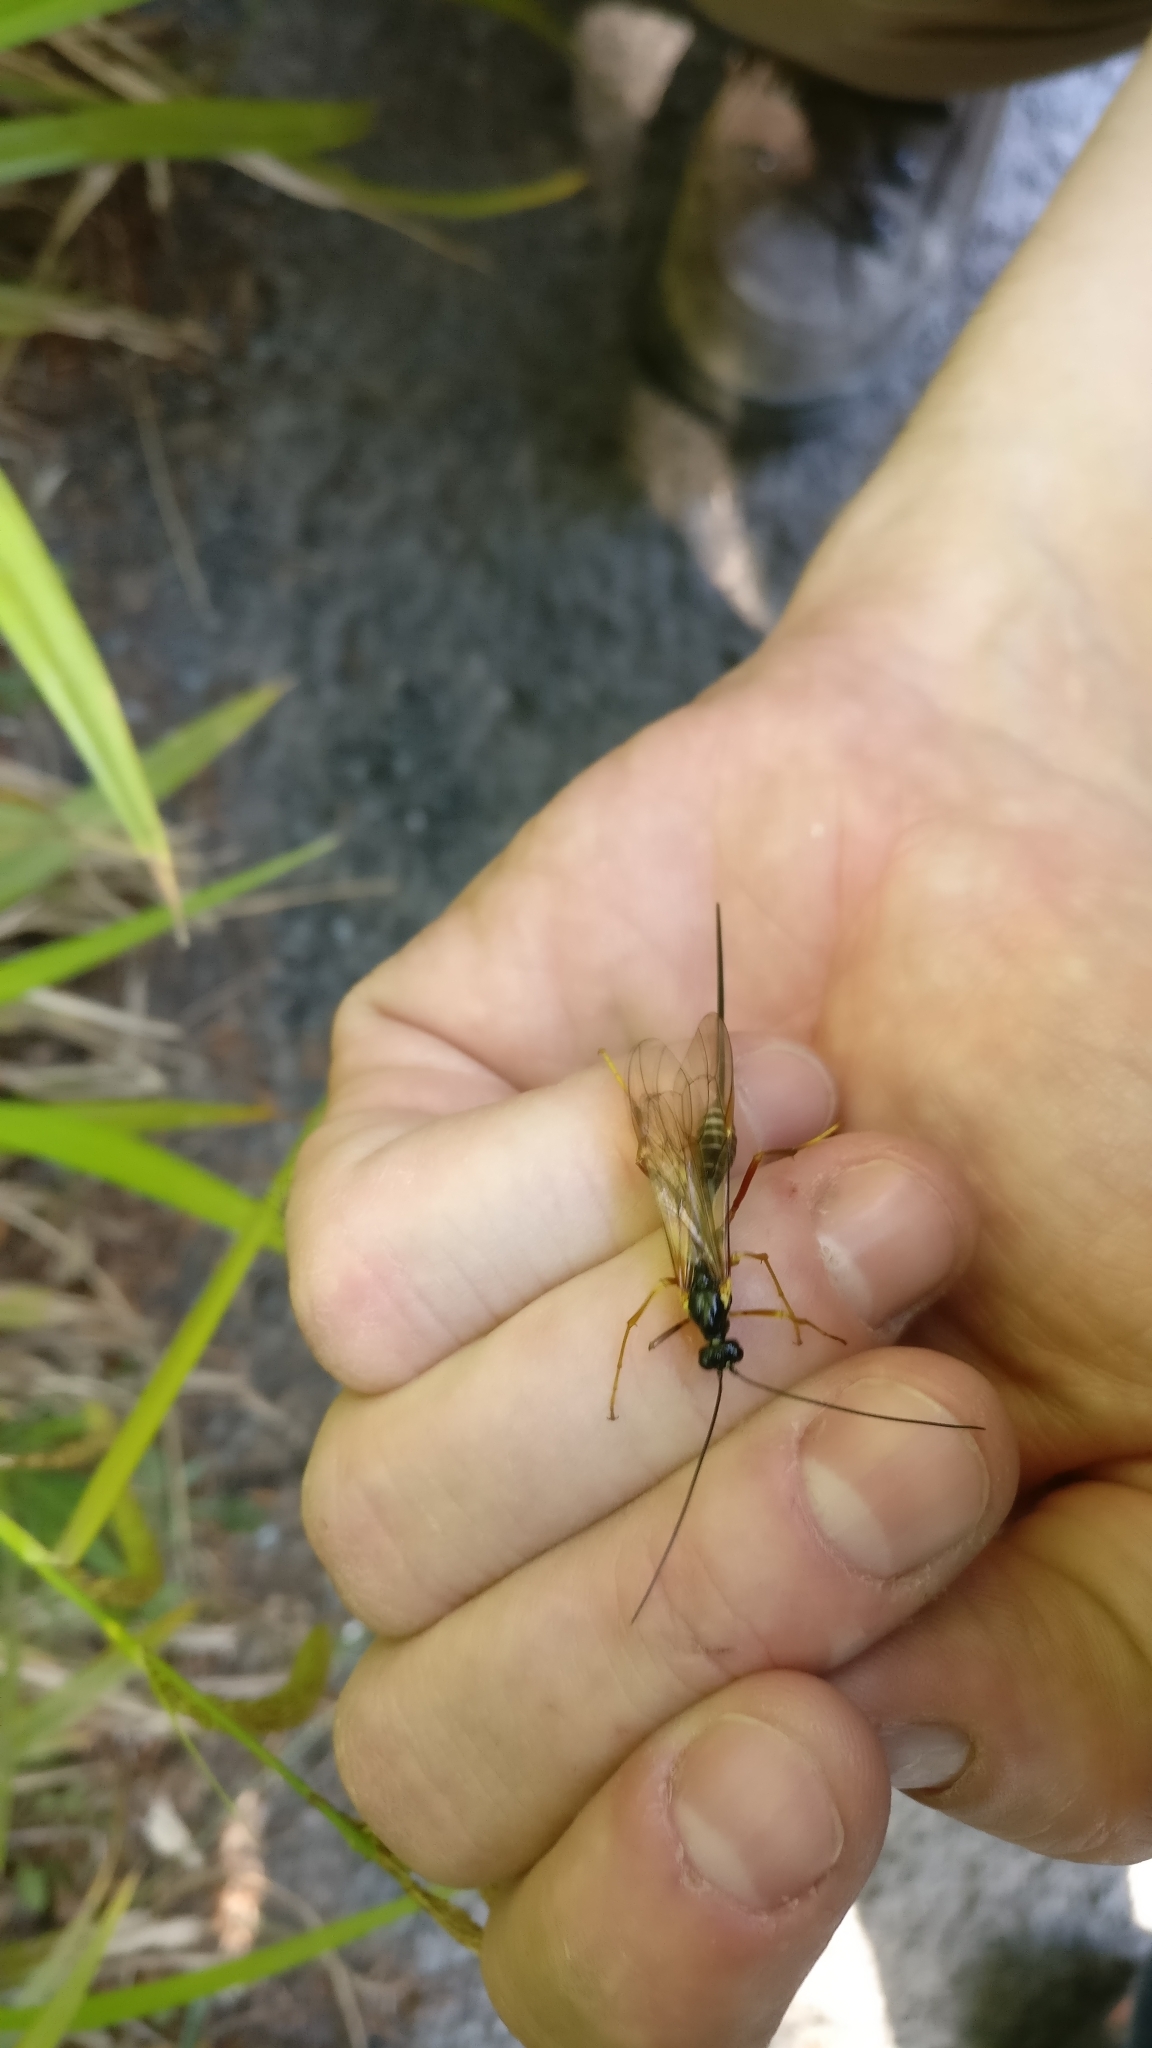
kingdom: Animalia
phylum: Arthropoda
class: Insecta
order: Hymenoptera
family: Ichneumonidae
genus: Coleocentrus
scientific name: Coleocentrus excitator
